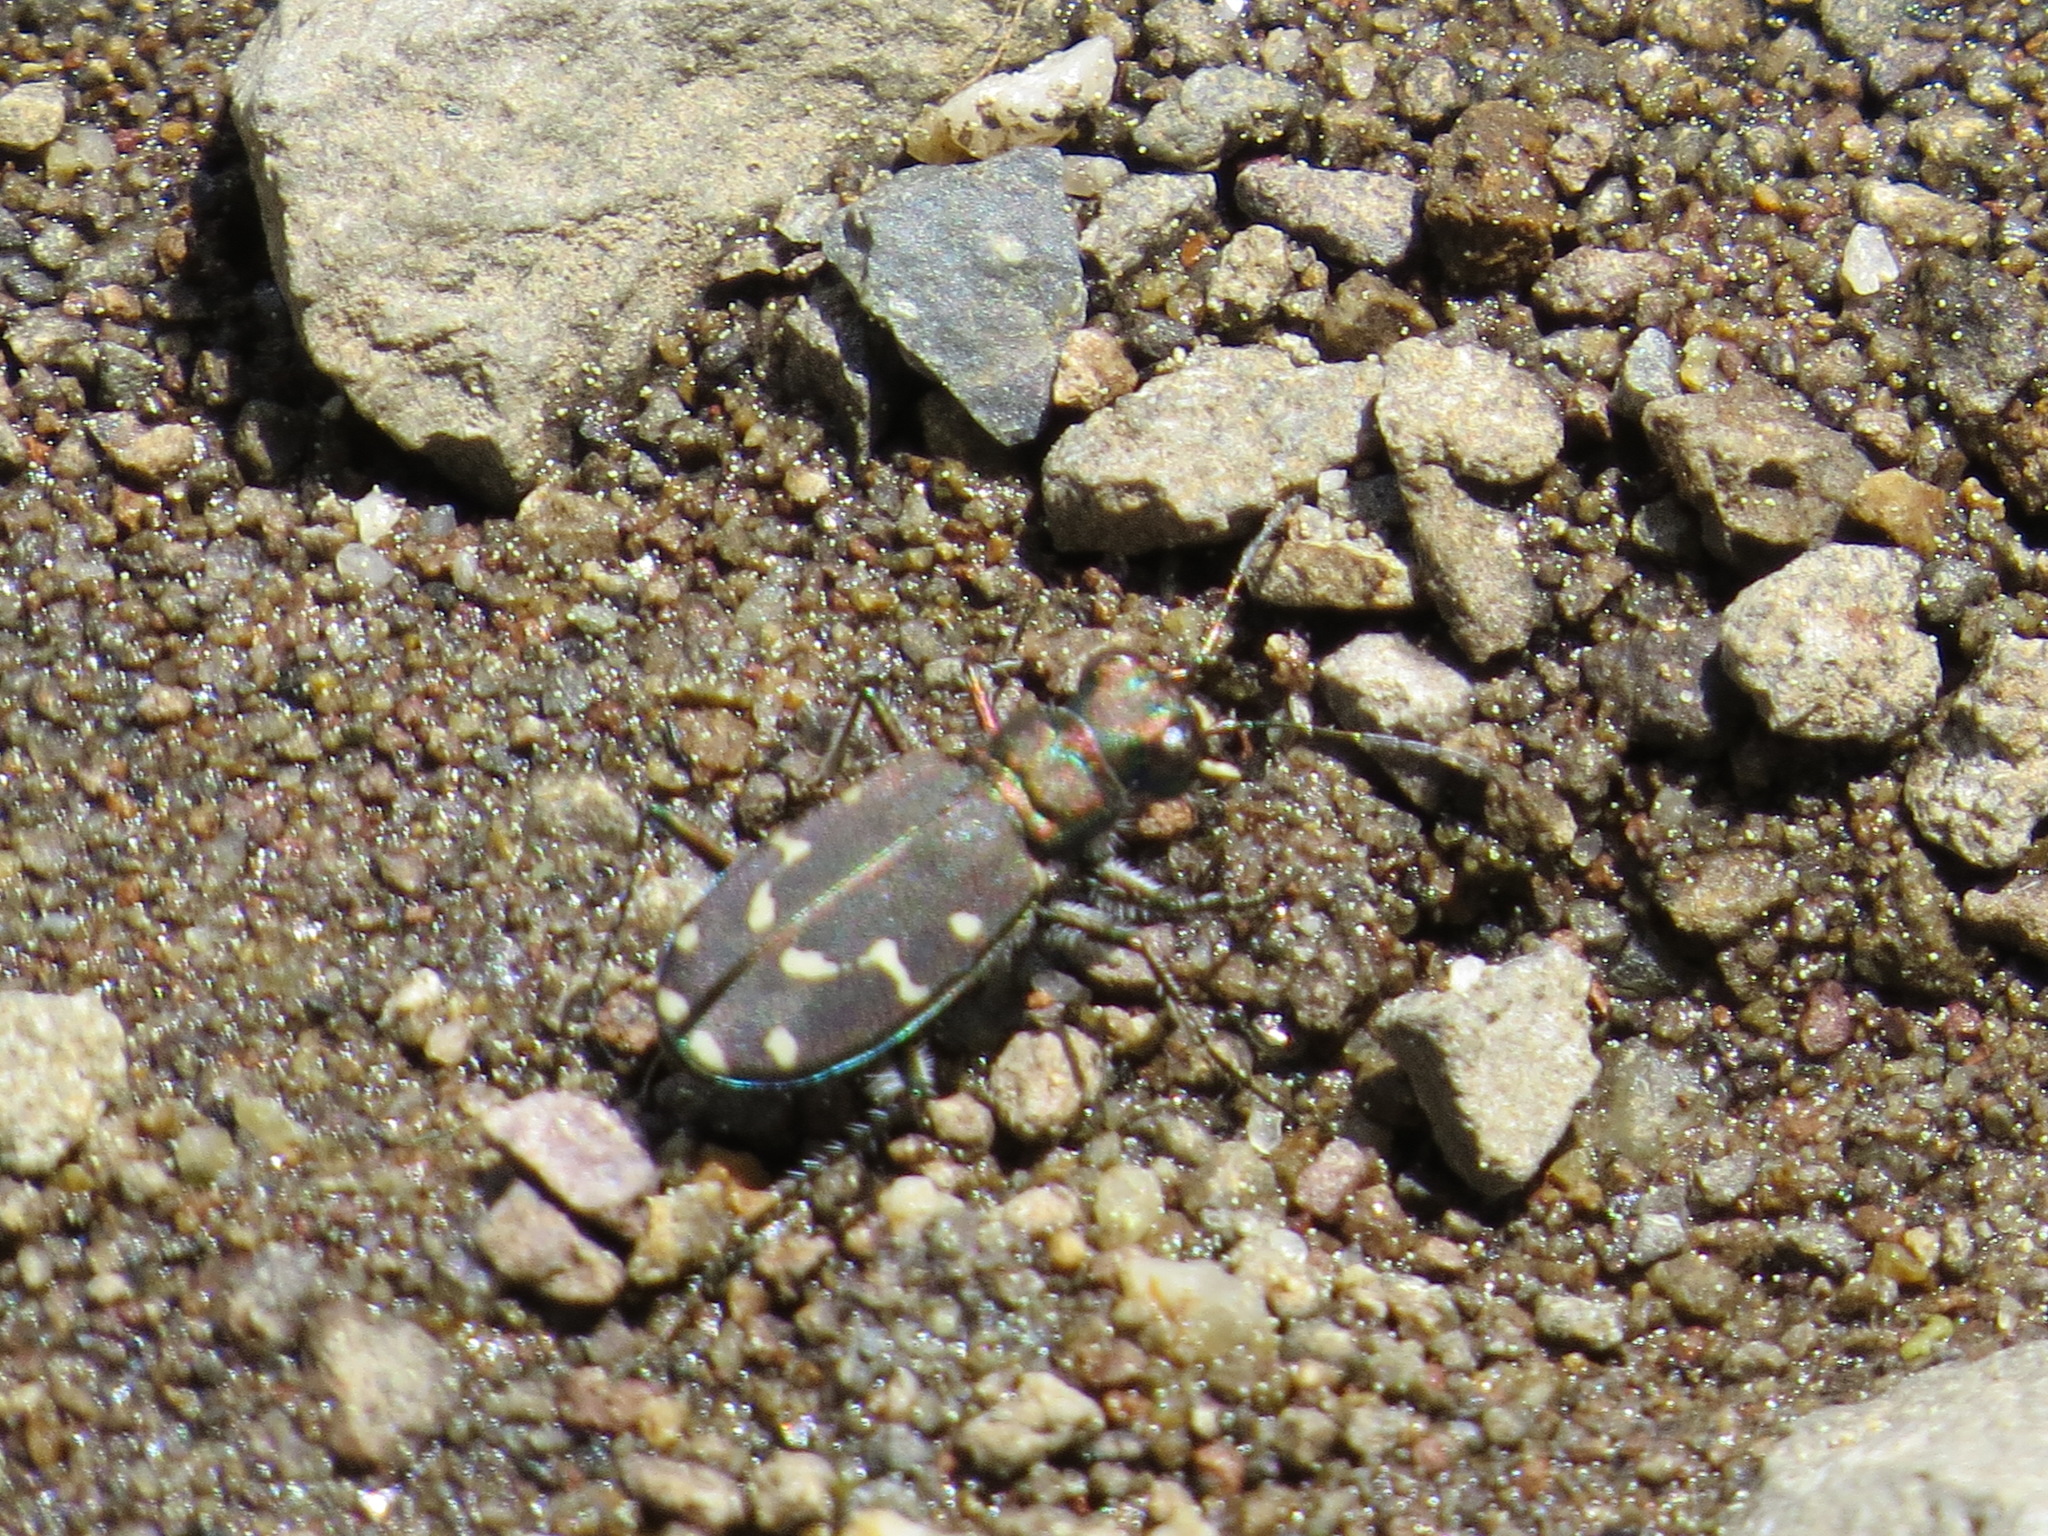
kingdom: Animalia
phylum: Arthropoda
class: Insecta
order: Coleoptera
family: Carabidae
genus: Cicindela
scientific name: Cicindela oregona
